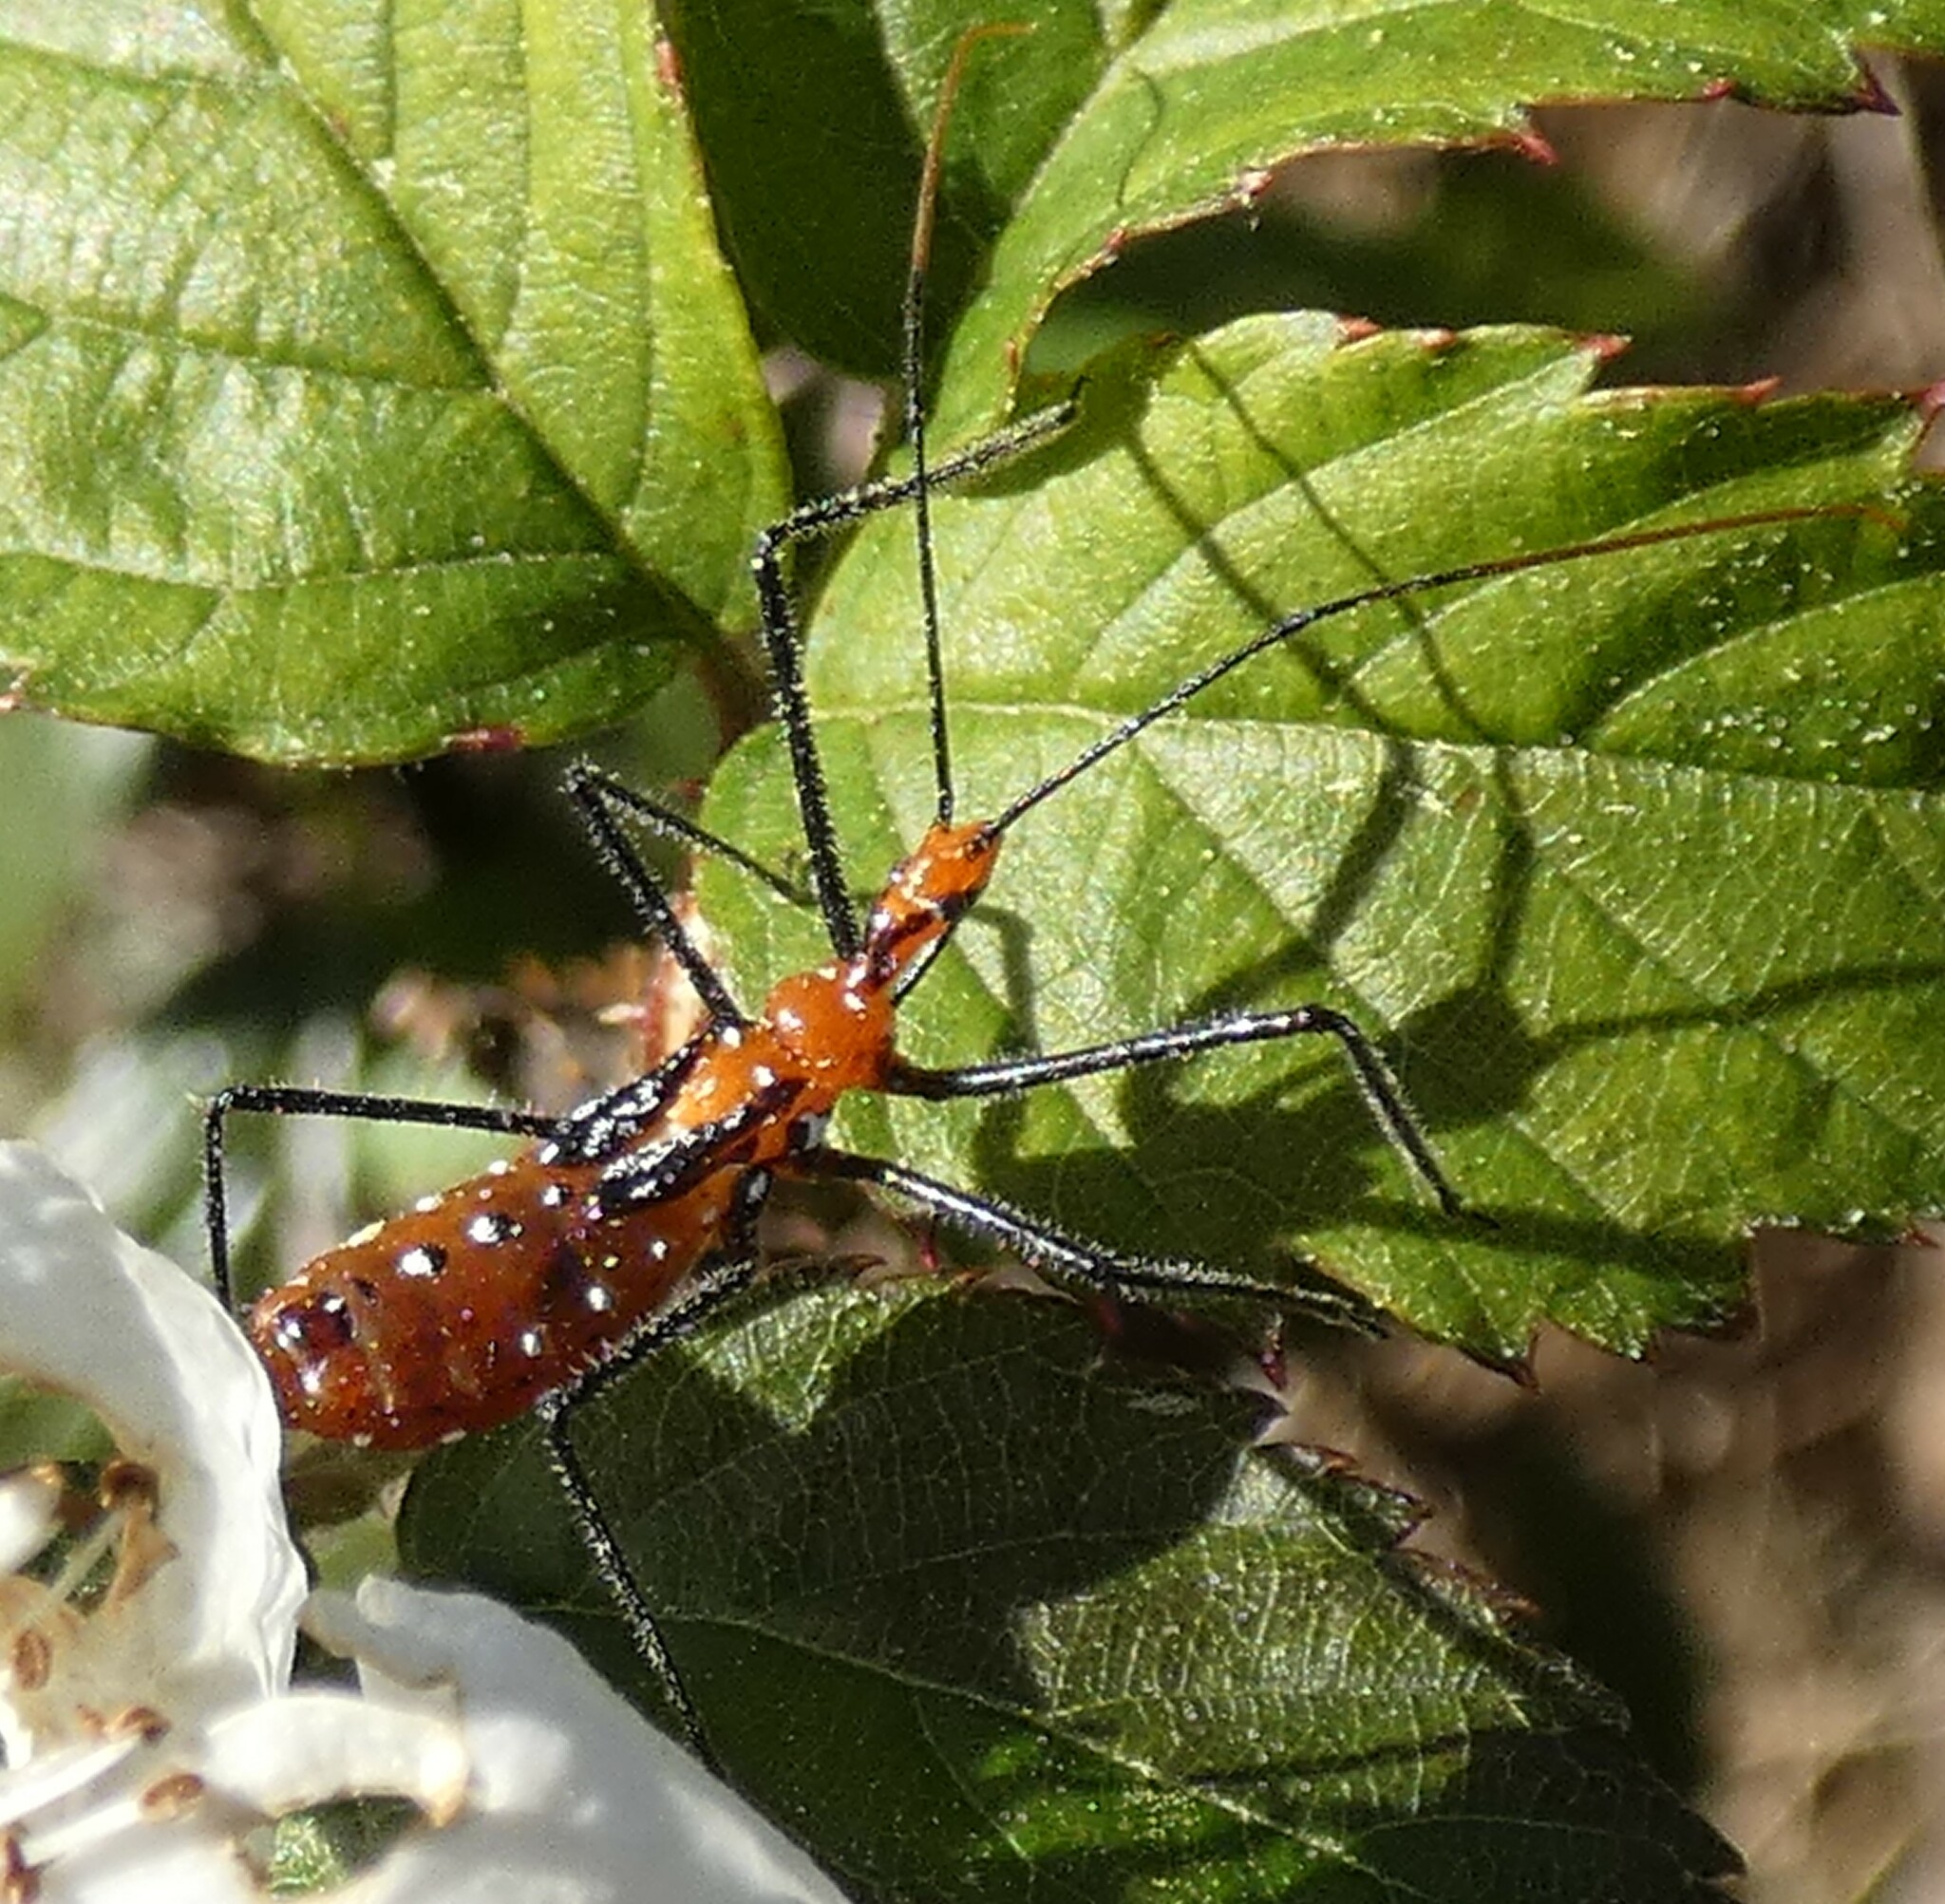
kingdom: Animalia
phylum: Arthropoda
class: Insecta
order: Hemiptera
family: Reduviidae
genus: Zelus
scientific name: Zelus longipes
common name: Milkweed assassin bug
